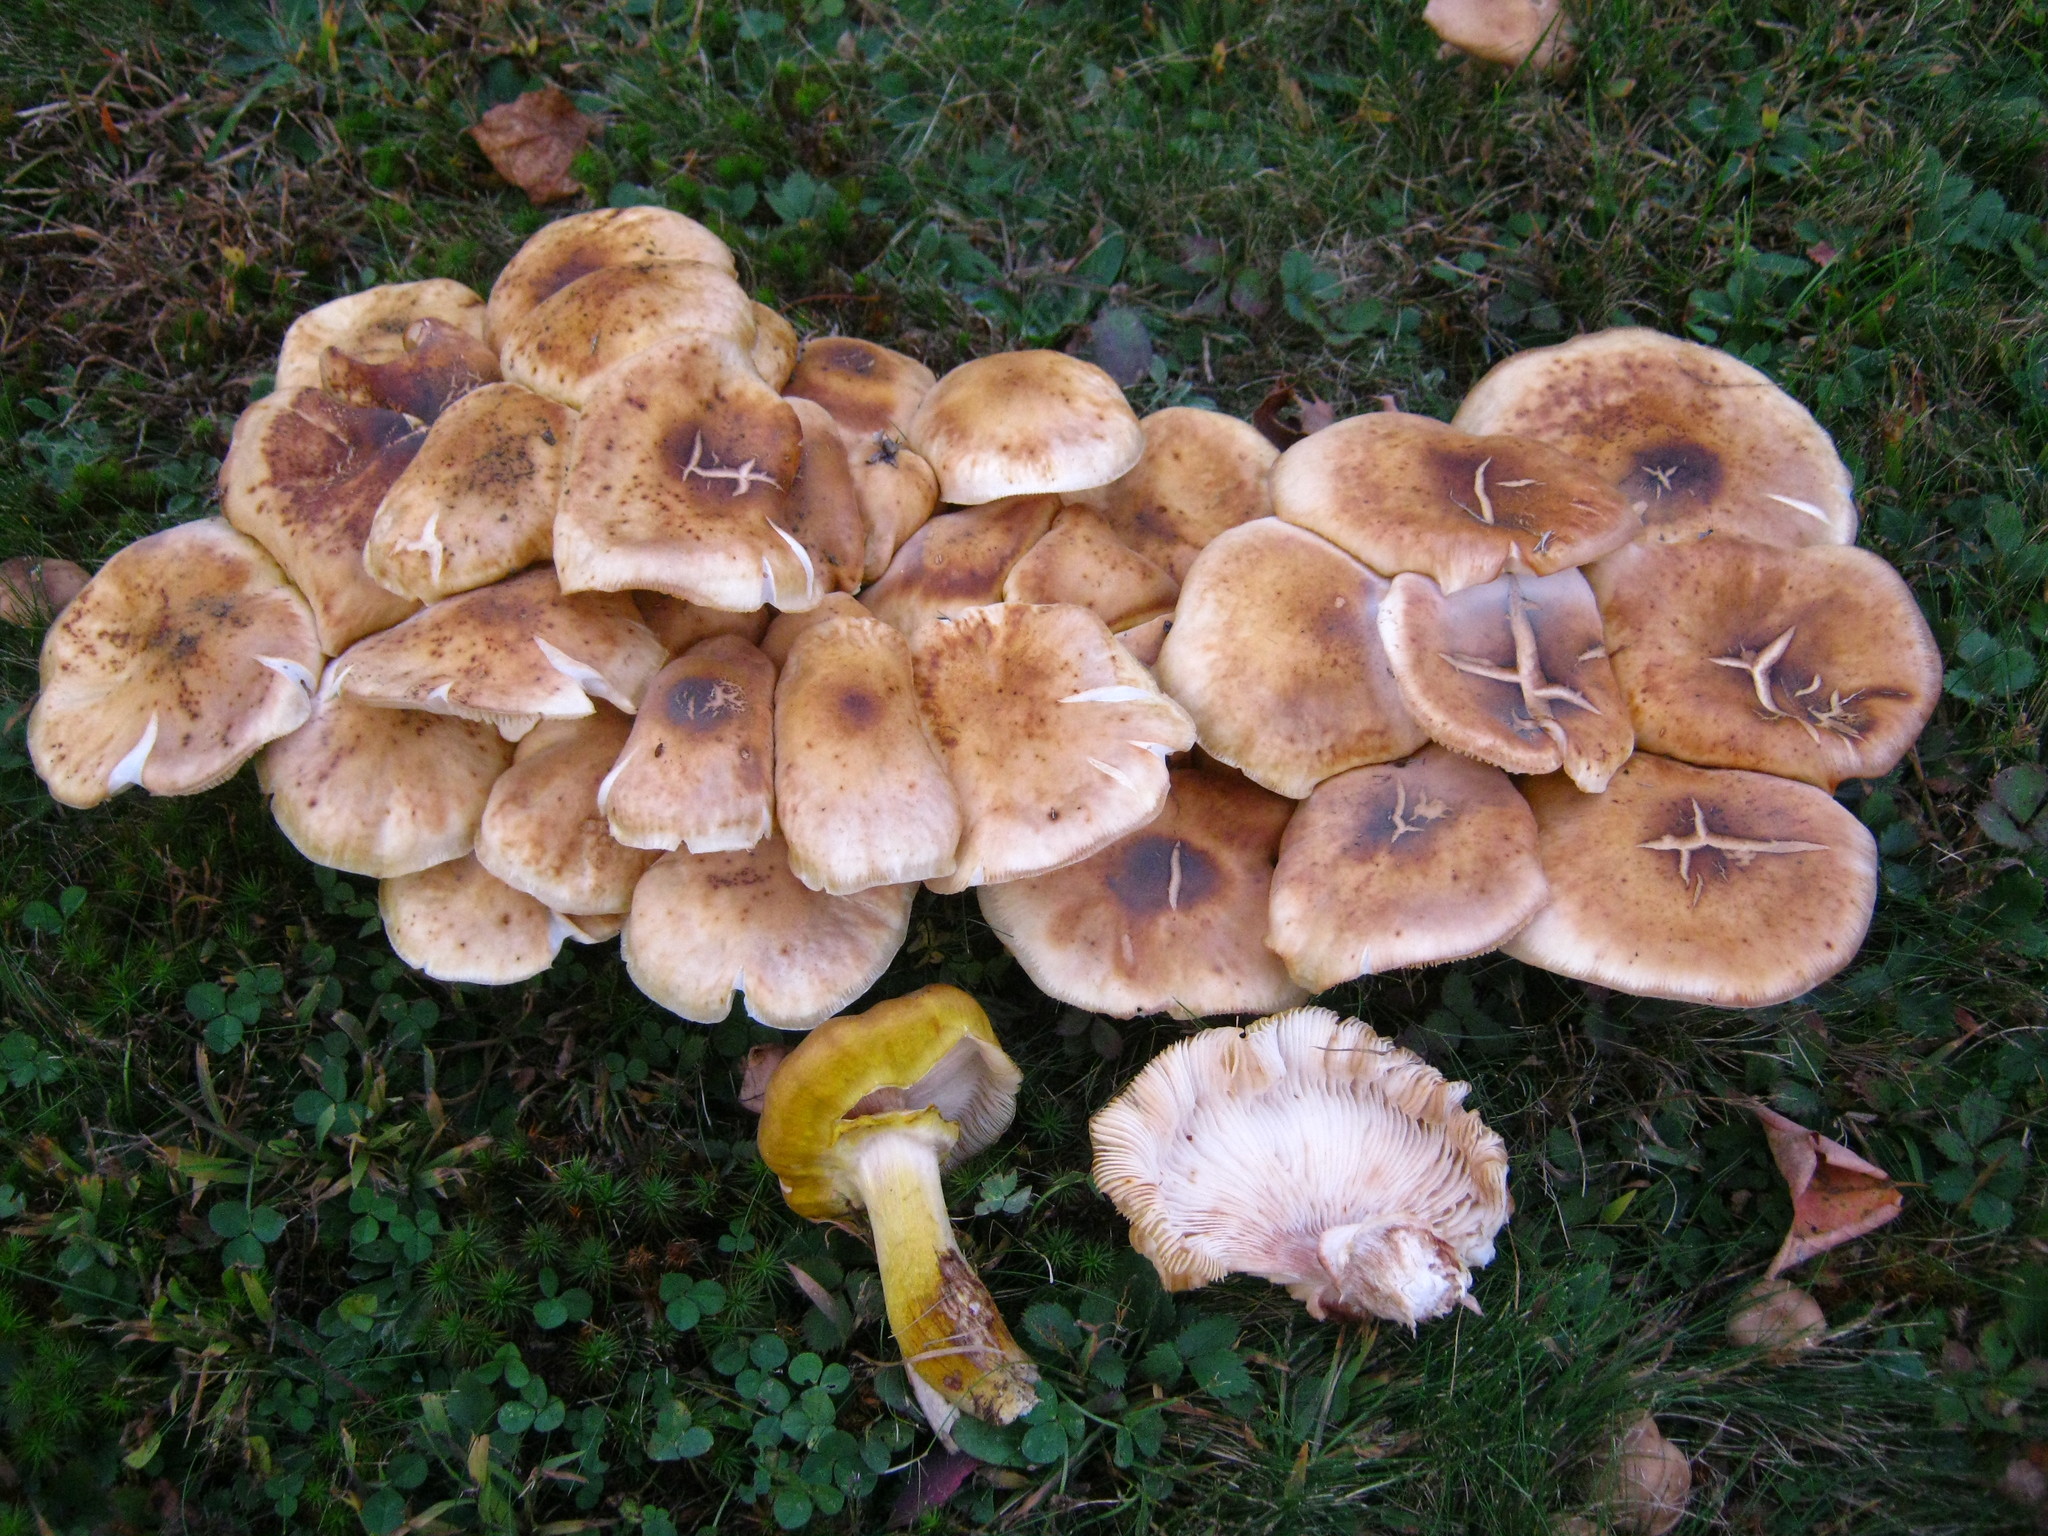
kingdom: Fungi
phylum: Basidiomycota
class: Agaricomycetes
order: Agaricales
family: Physalacriaceae
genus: Armillaria
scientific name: Armillaria mellea
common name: Honey fungus
